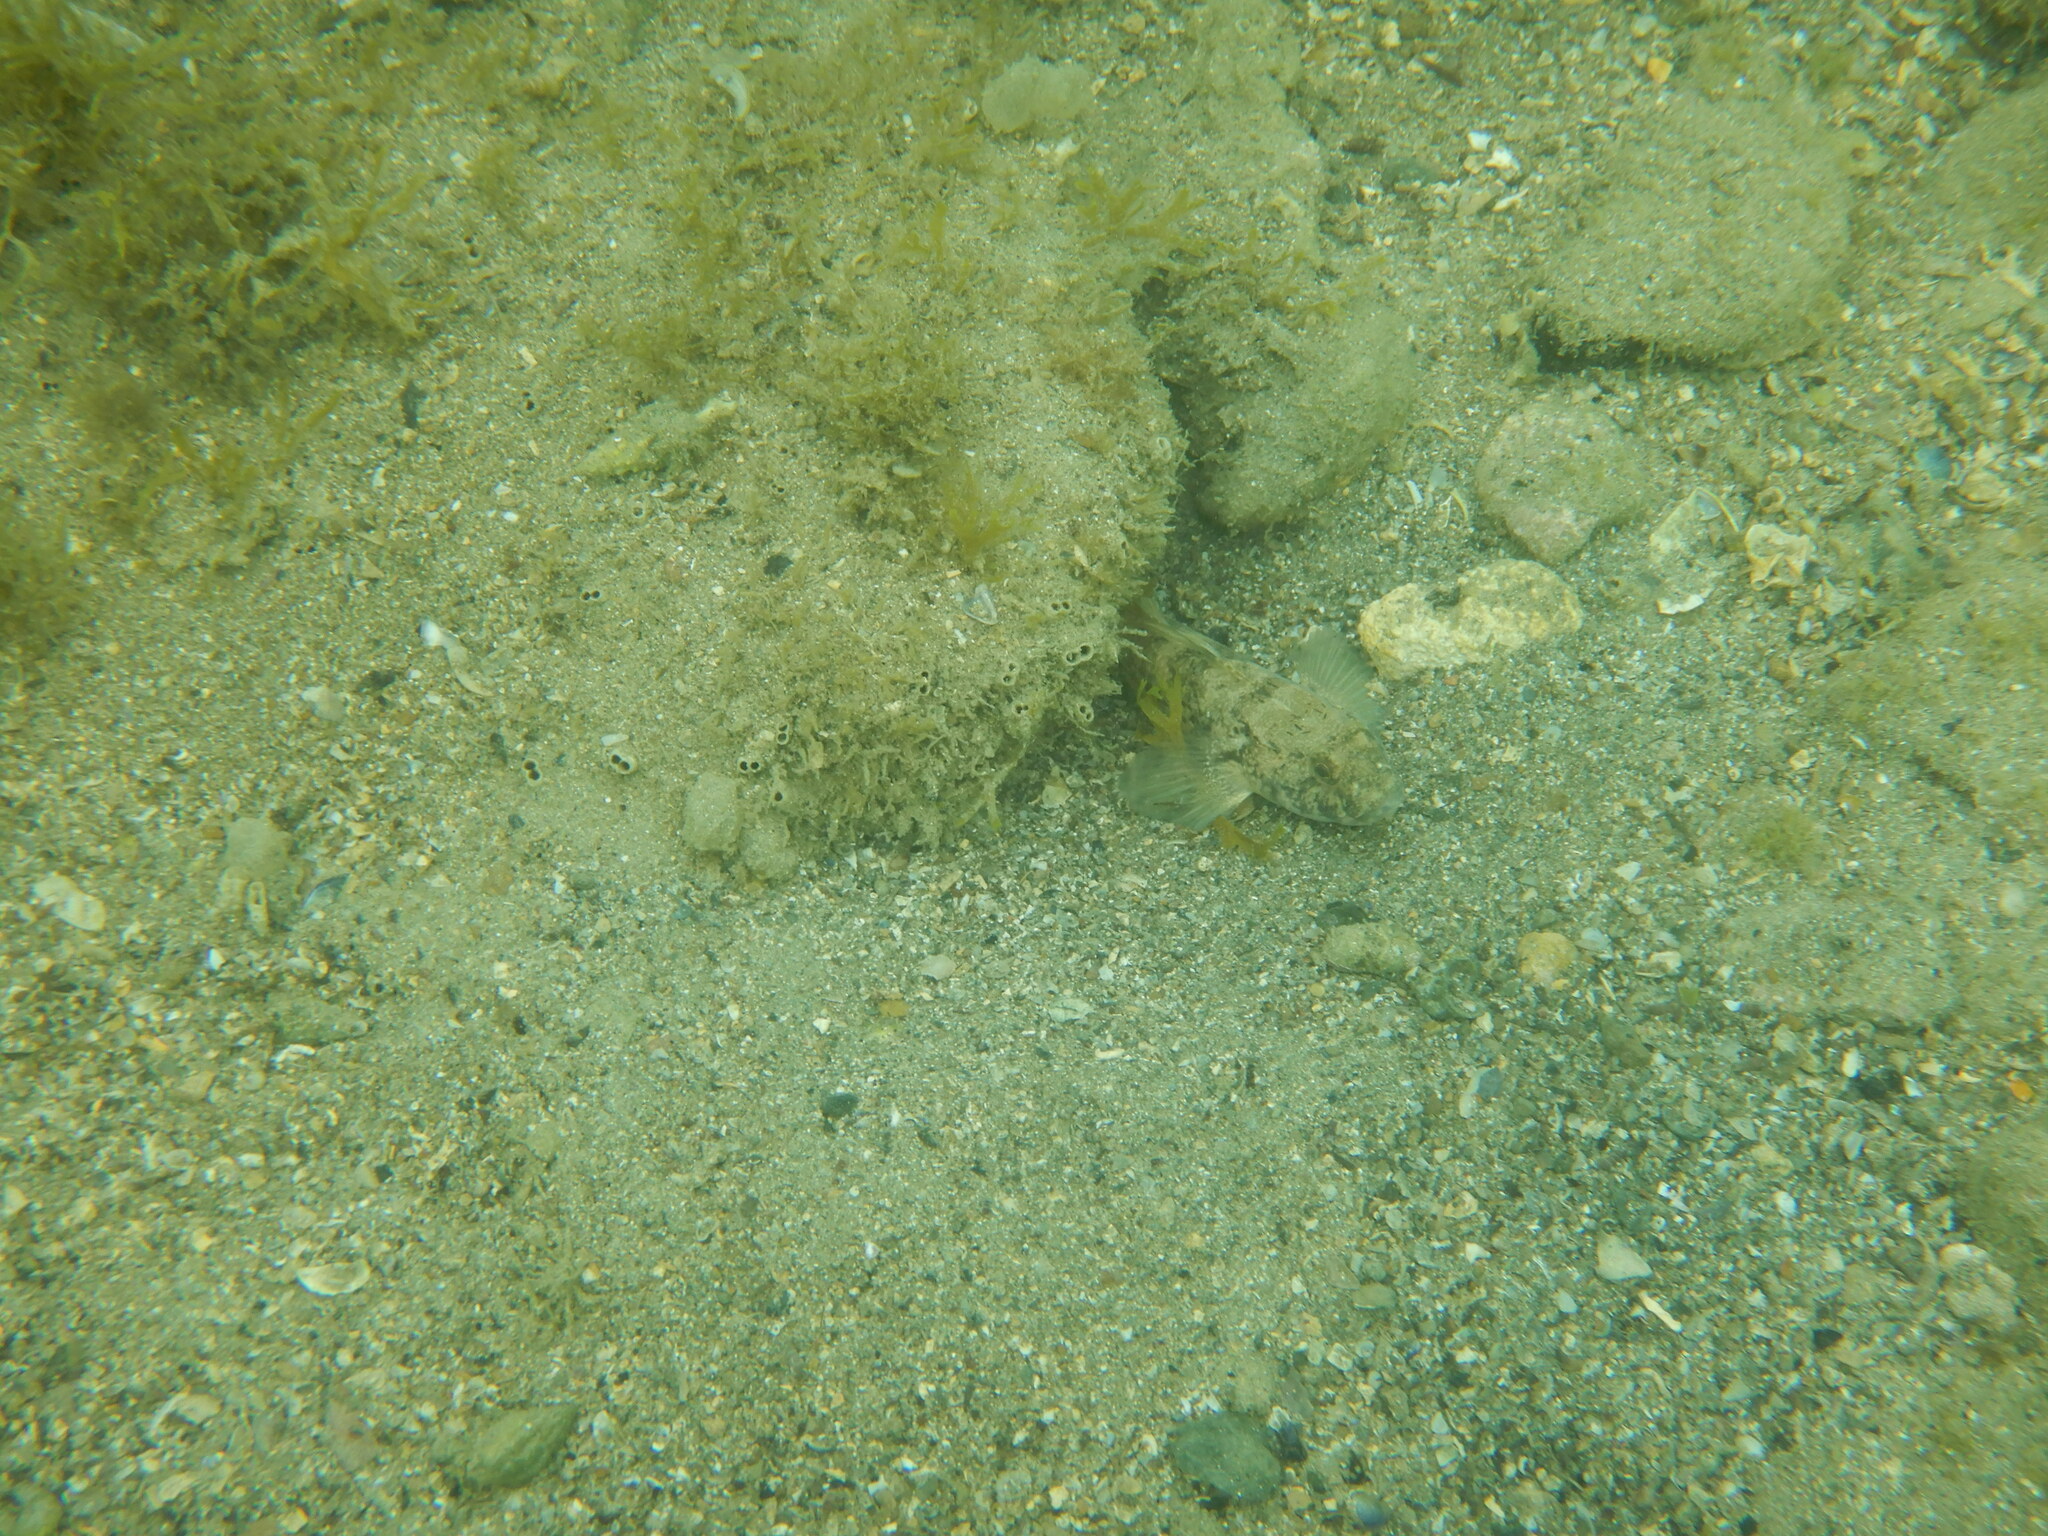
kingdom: Animalia
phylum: Chordata
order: Perciformes
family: Gobiidae
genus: Gobius
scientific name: Gobius niger
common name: Black goby
